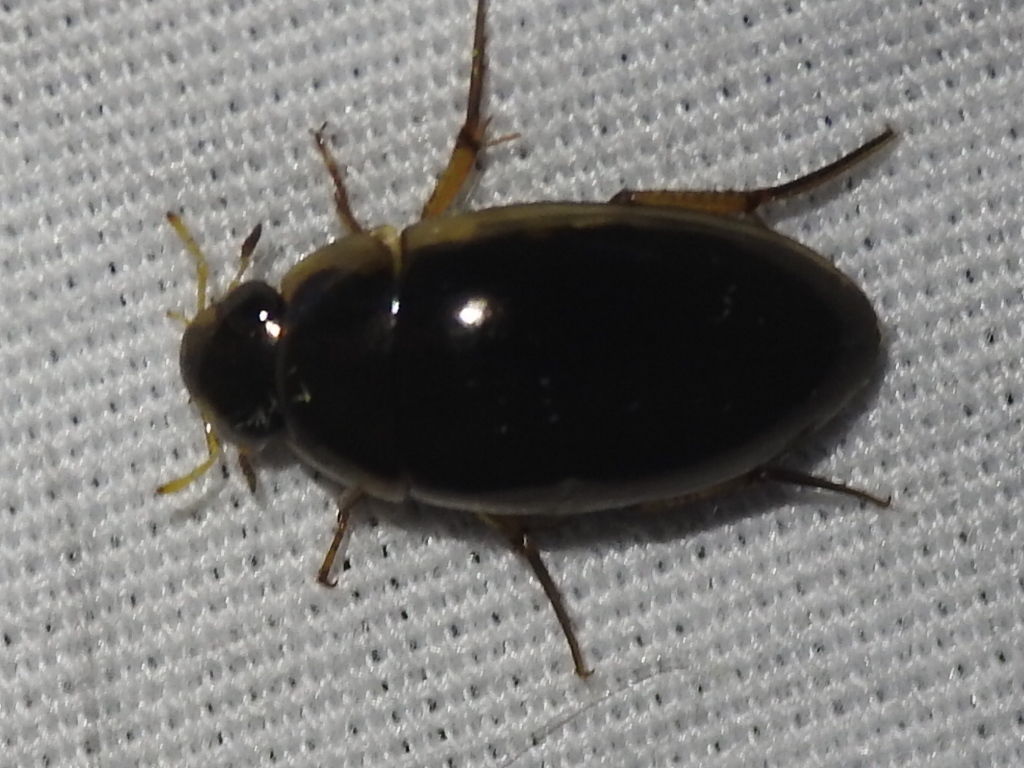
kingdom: Animalia
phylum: Arthropoda
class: Insecta
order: Coleoptera
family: Hydrophilidae
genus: Tropisternus
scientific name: Tropisternus lateralis
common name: Lateral-banded water scavenger beetle
